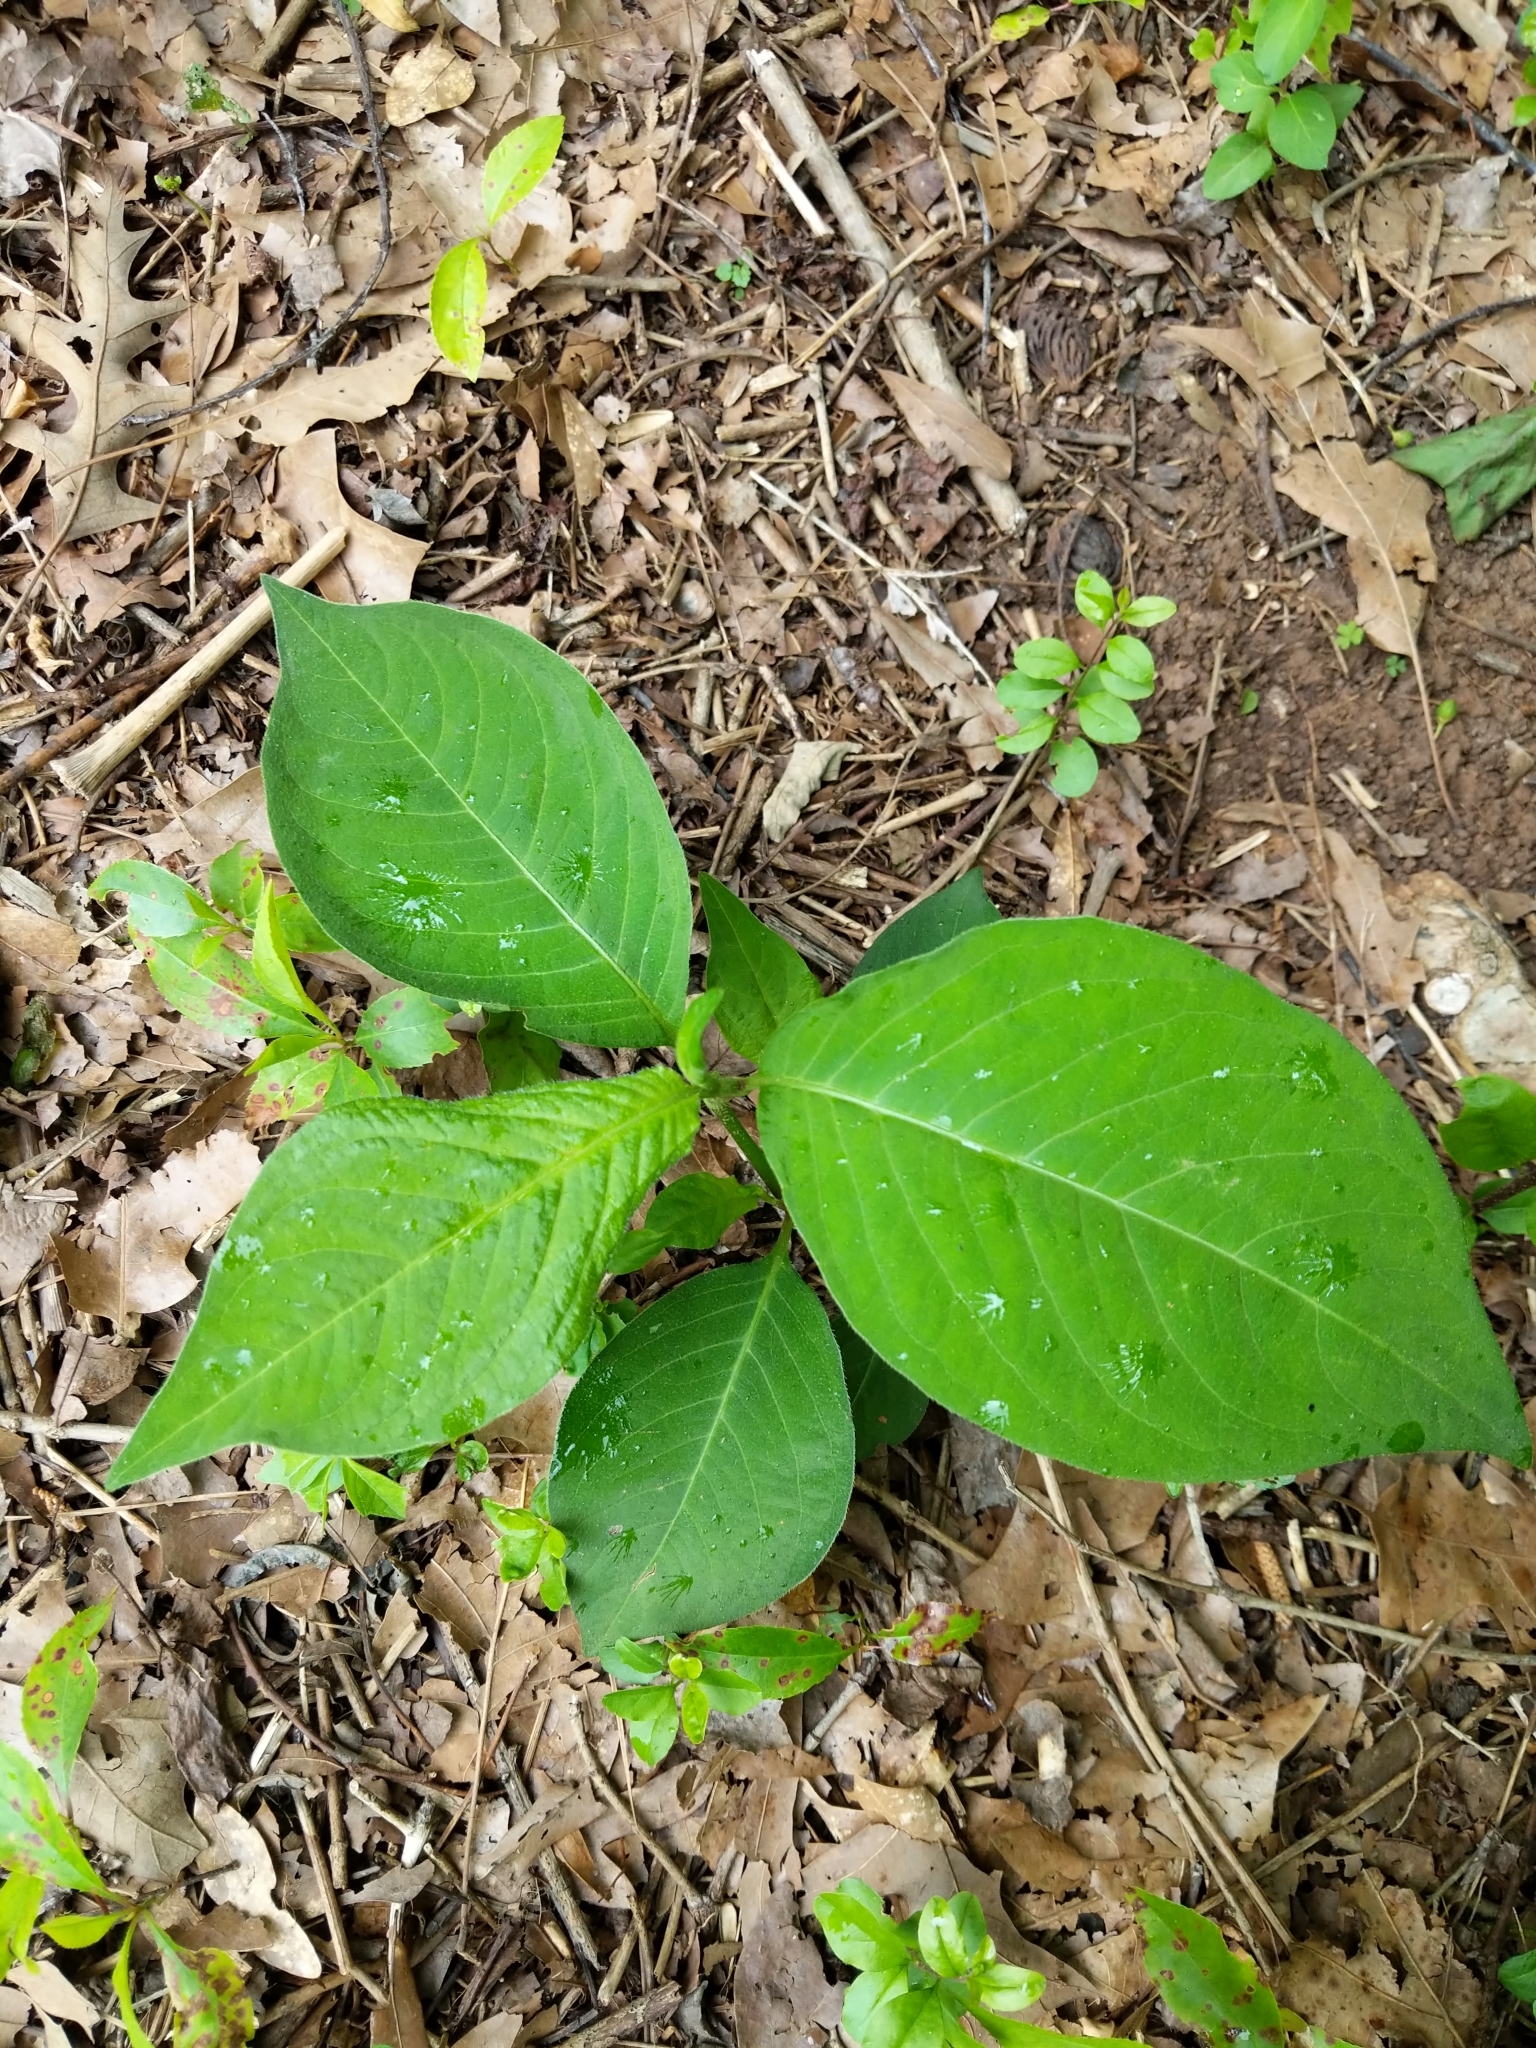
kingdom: Plantae
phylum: Tracheophyta
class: Magnoliopsida
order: Caryophyllales
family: Polygonaceae
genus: Persicaria
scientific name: Persicaria virginiana
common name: Jumpseed
